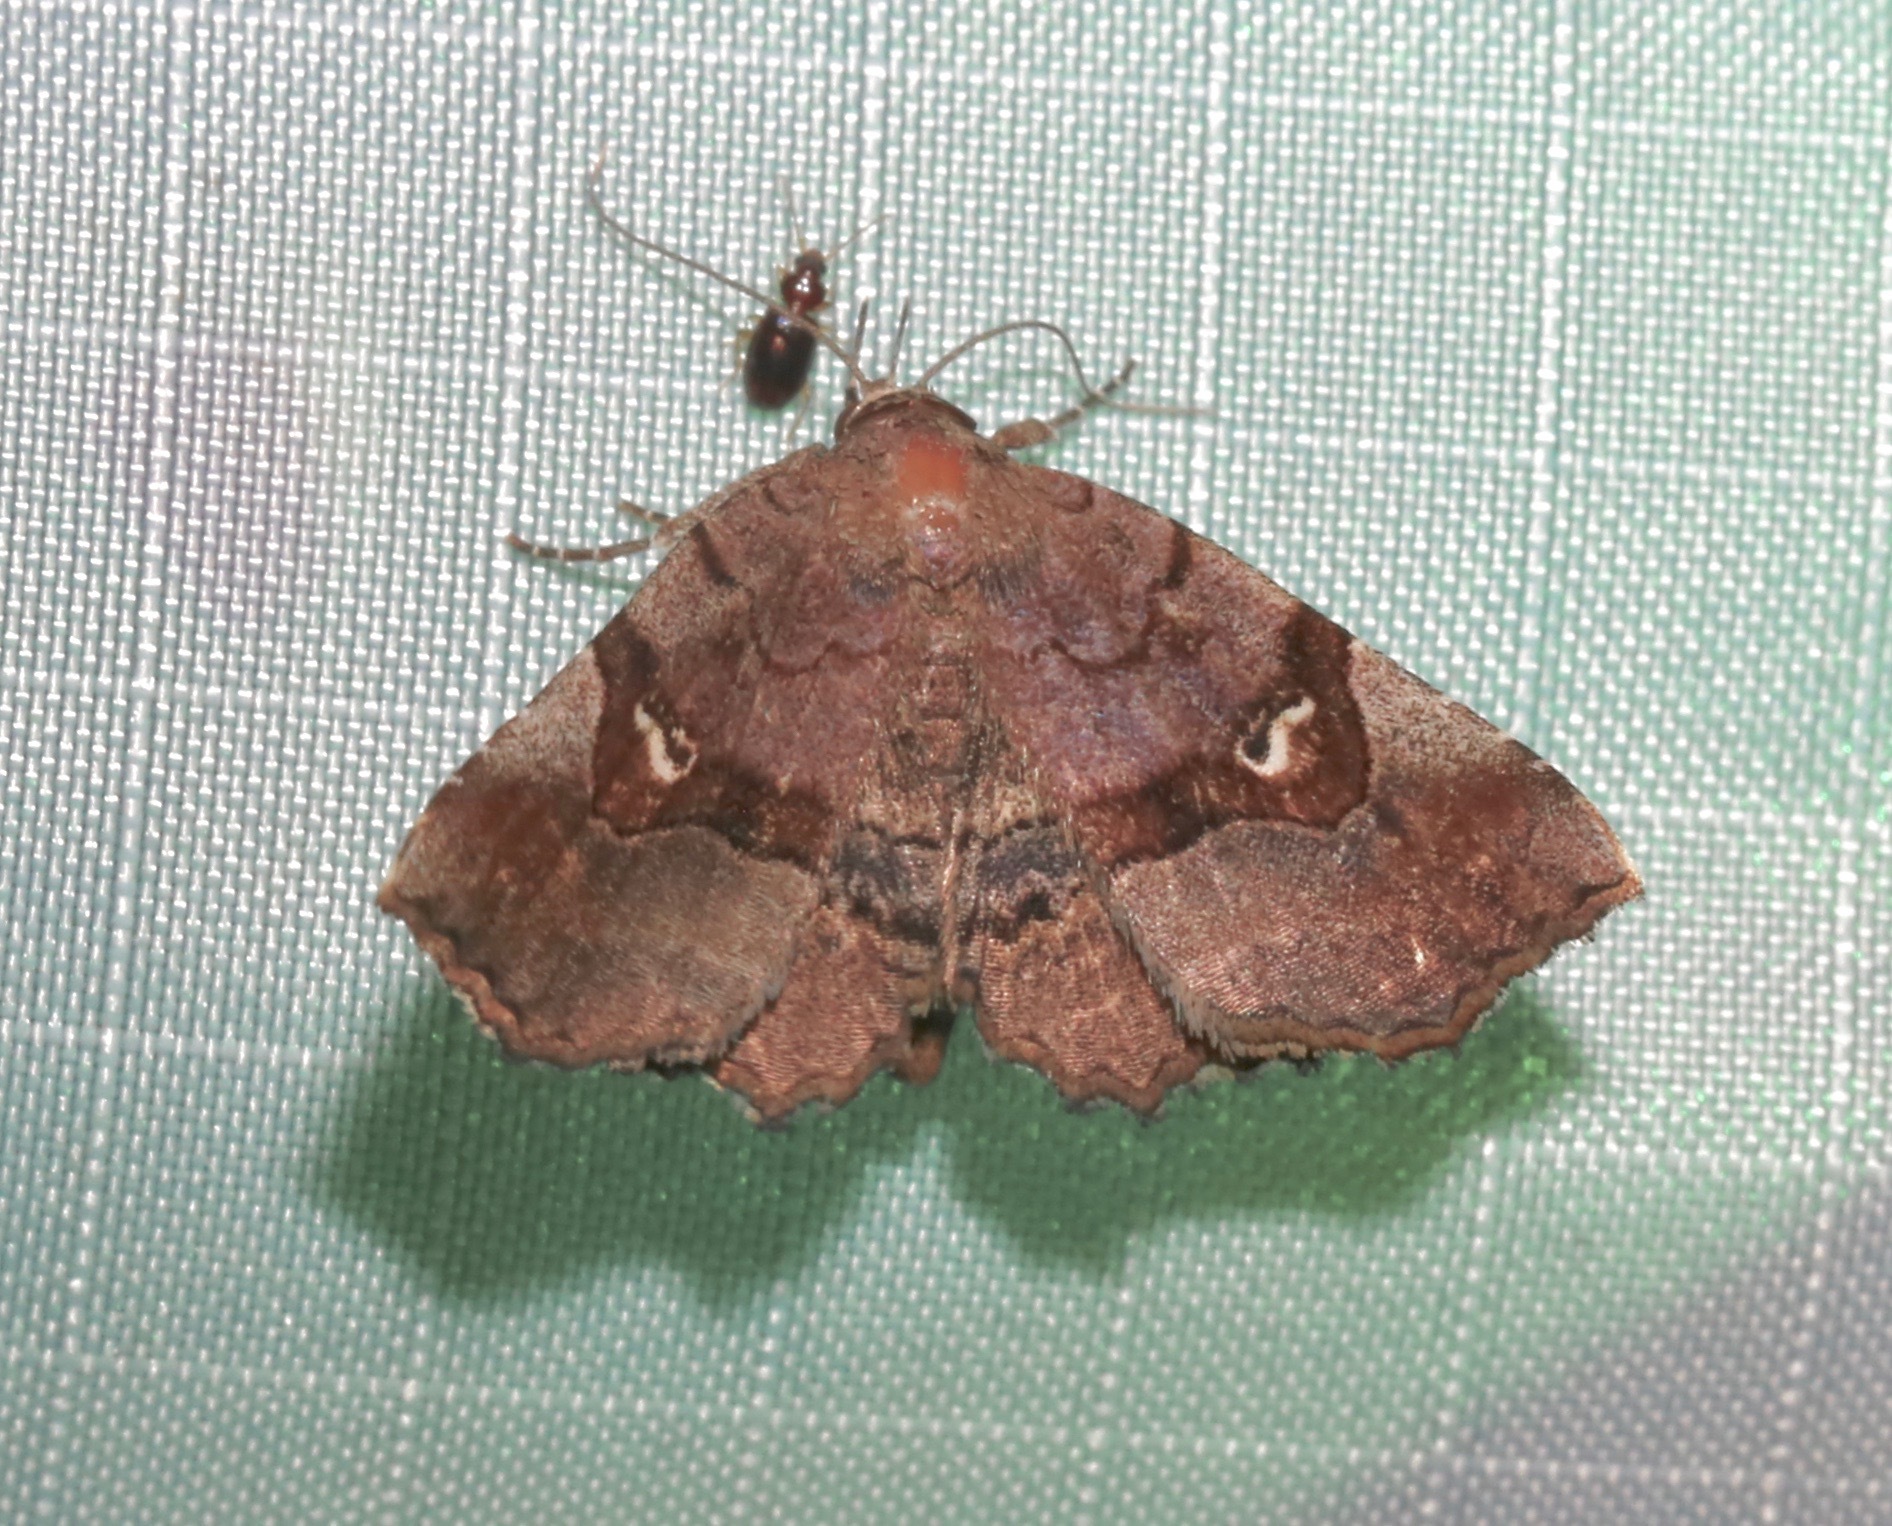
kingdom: Animalia
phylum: Arthropoda
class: Insecta
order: Lepidoptera
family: Erebidae
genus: Pangrapta
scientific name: Pangrapta decoralis
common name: Decorated owlet
